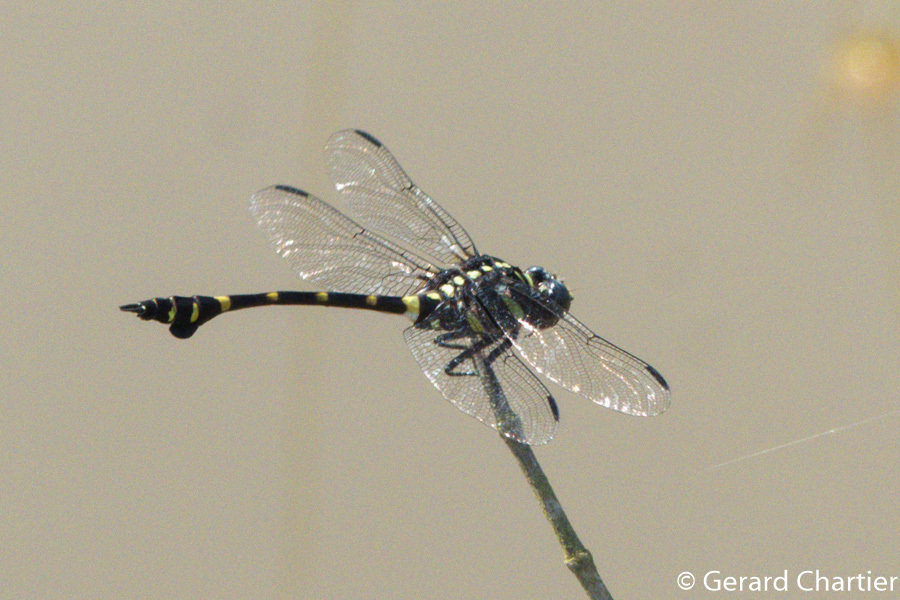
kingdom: Animalia
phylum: Arthropoda
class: Insecta
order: Odonata
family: Gomphidae
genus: Ictinogomphus
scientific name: Ictinogomphus decoratus
